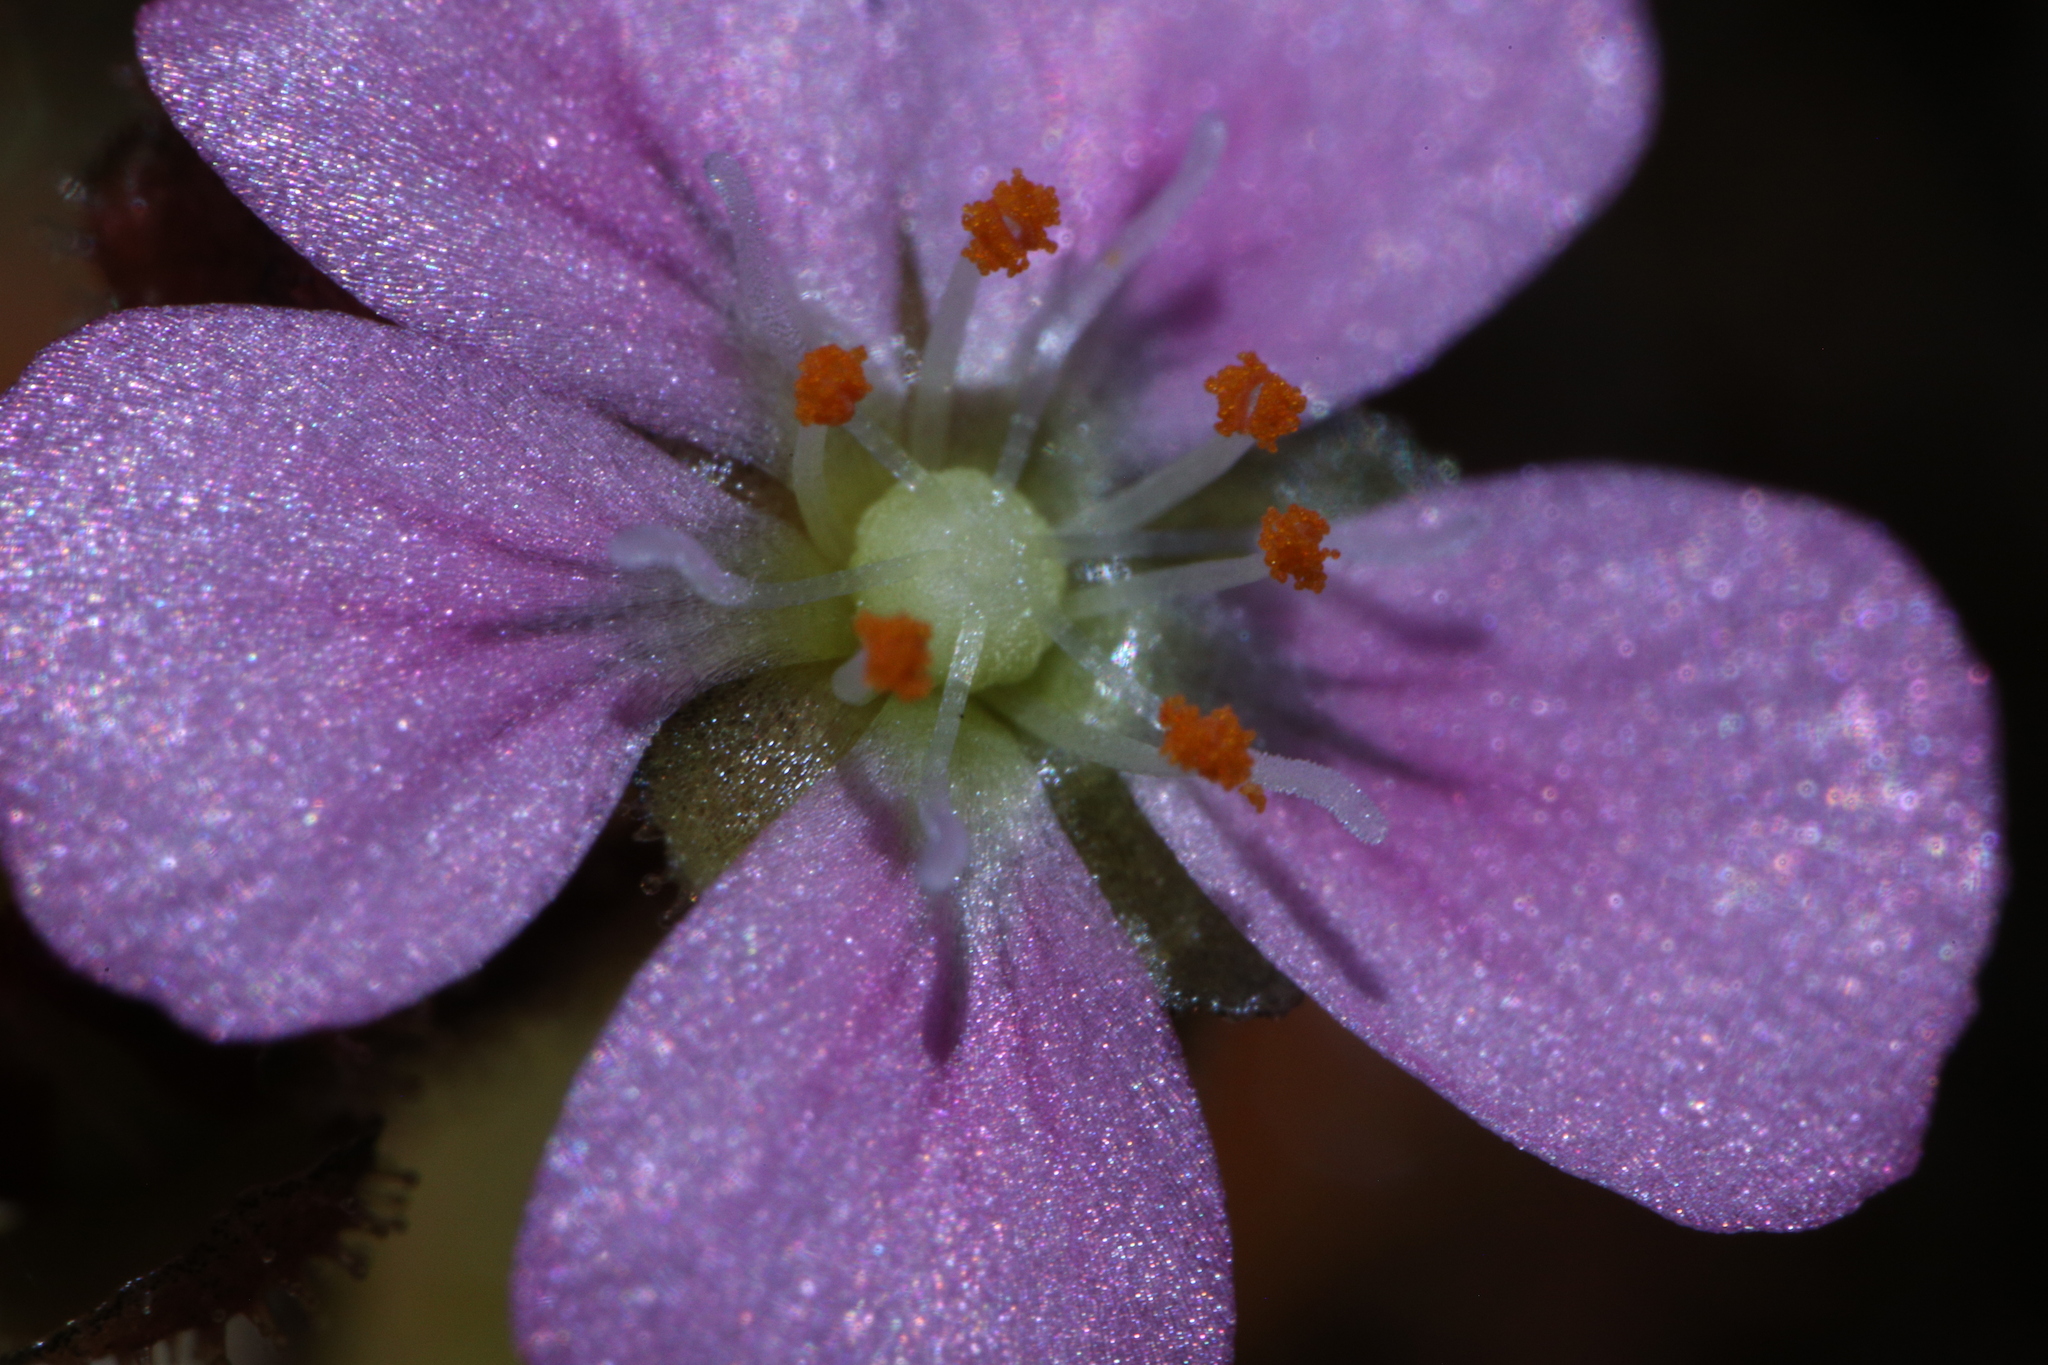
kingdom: Plantae
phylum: Tracheophyta
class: Magnoliopsida
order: Caryophyllales
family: Droseraceae
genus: Drosera
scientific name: Drosera pulchella
